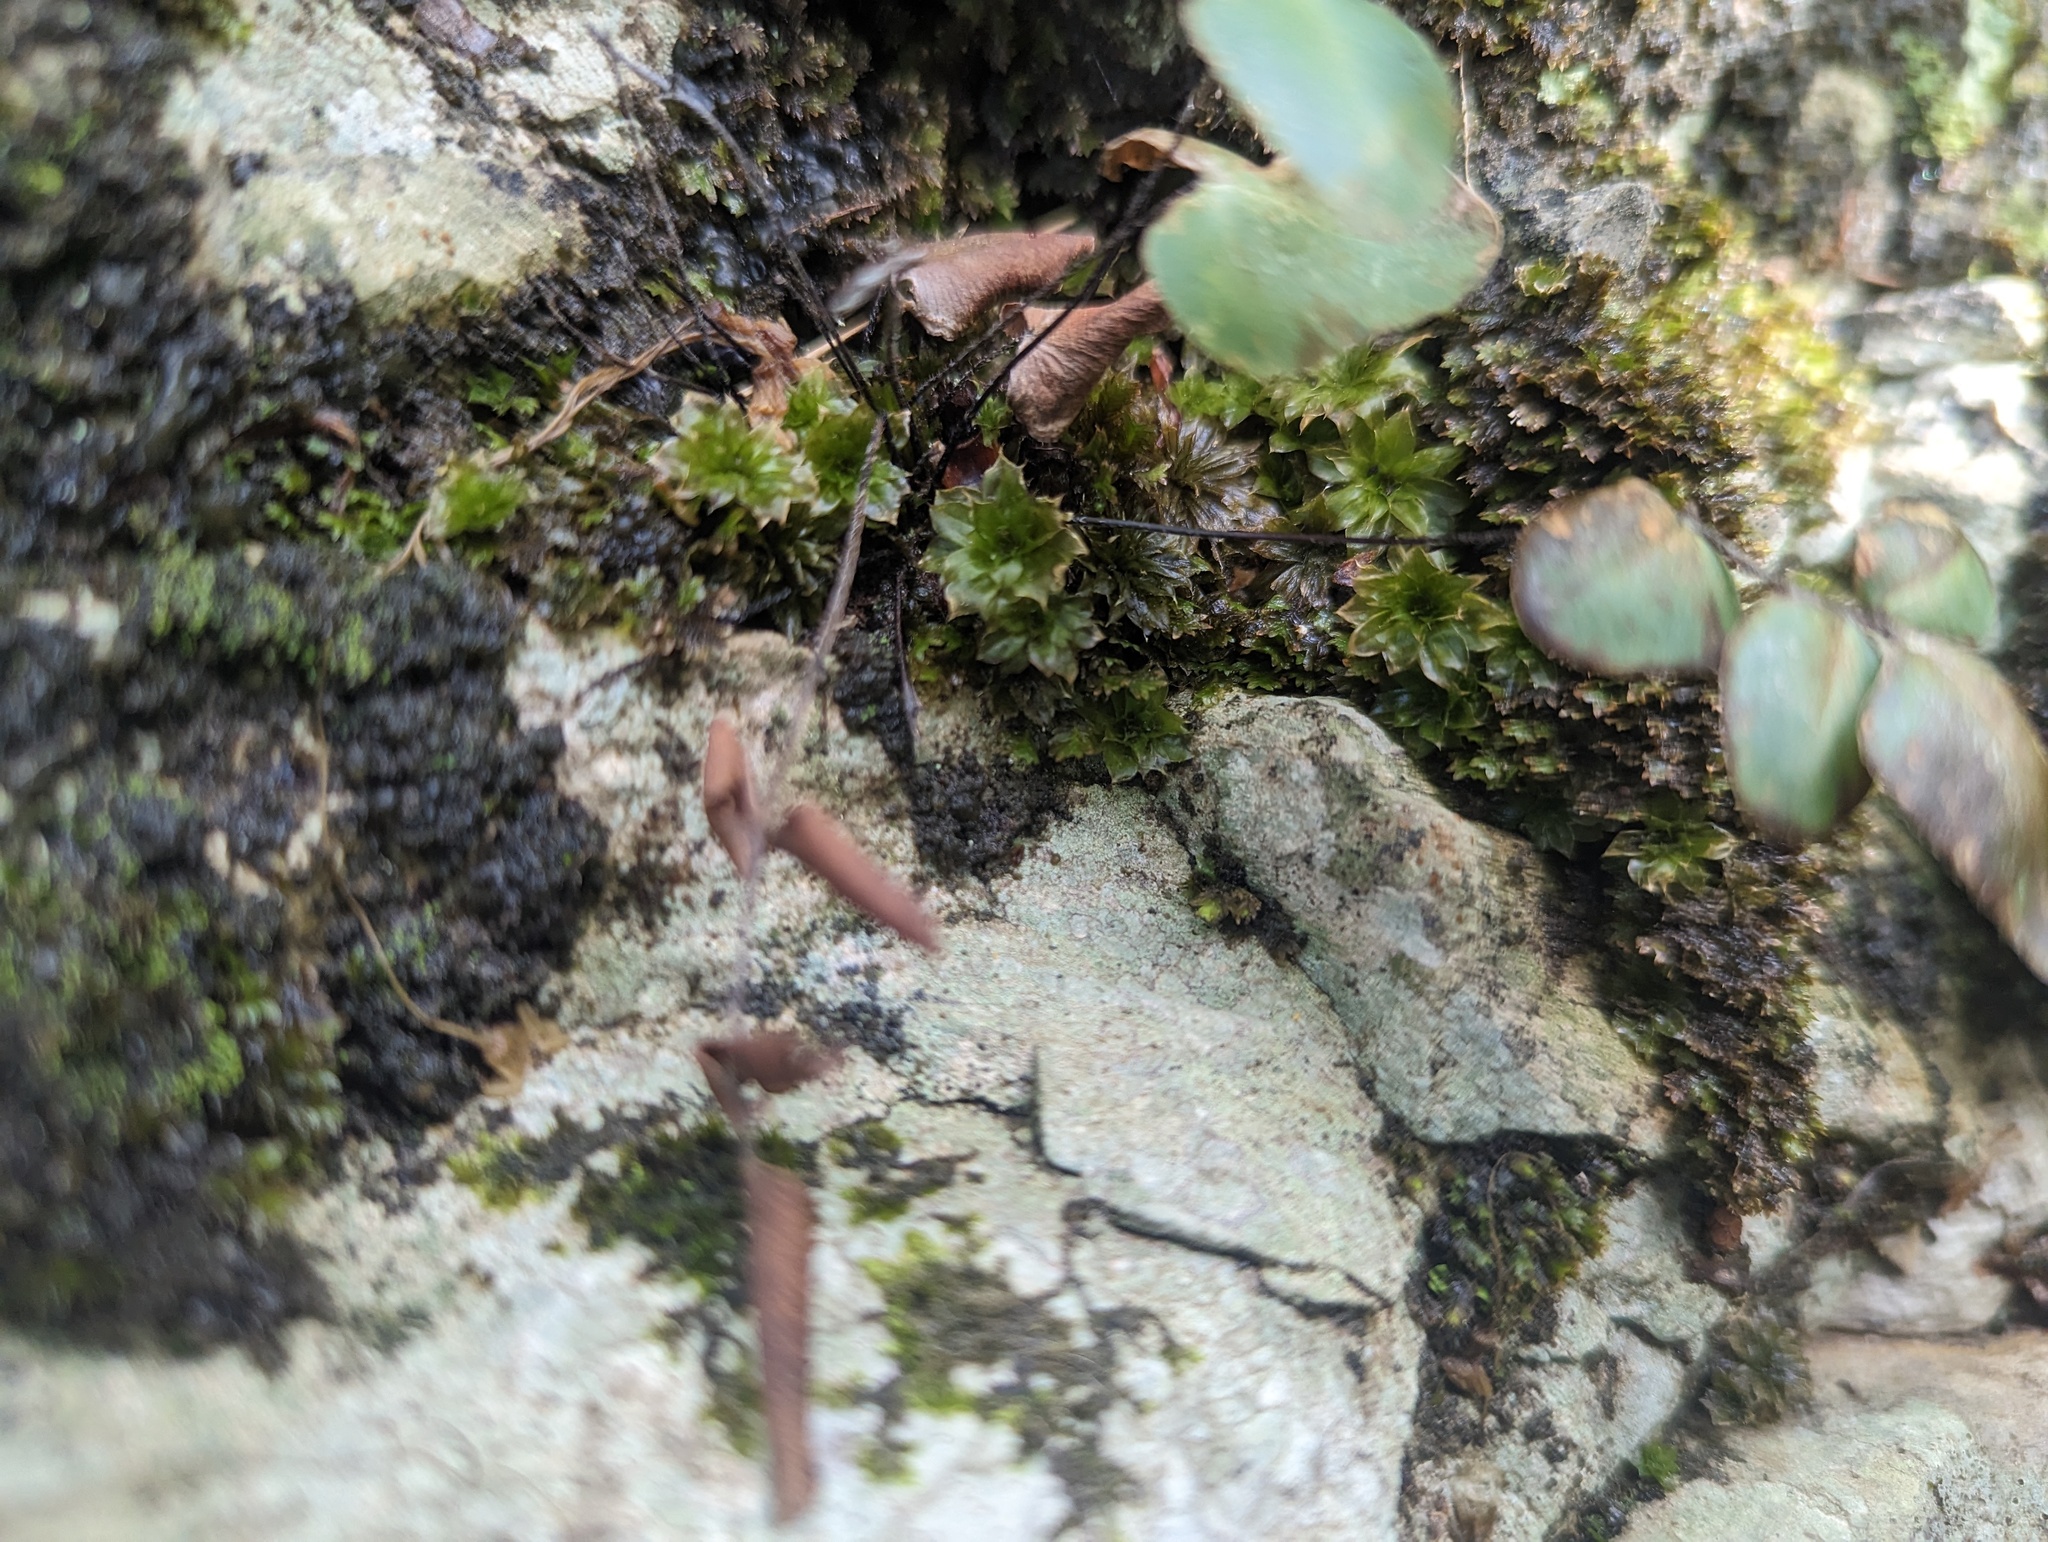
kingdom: Plantae
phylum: Bryophyta
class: Bryopsida
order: Bryales
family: Bryaceae
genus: Rhodobryum
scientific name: Rhodobryum ontariense
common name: Ontario rhodobryum moss
